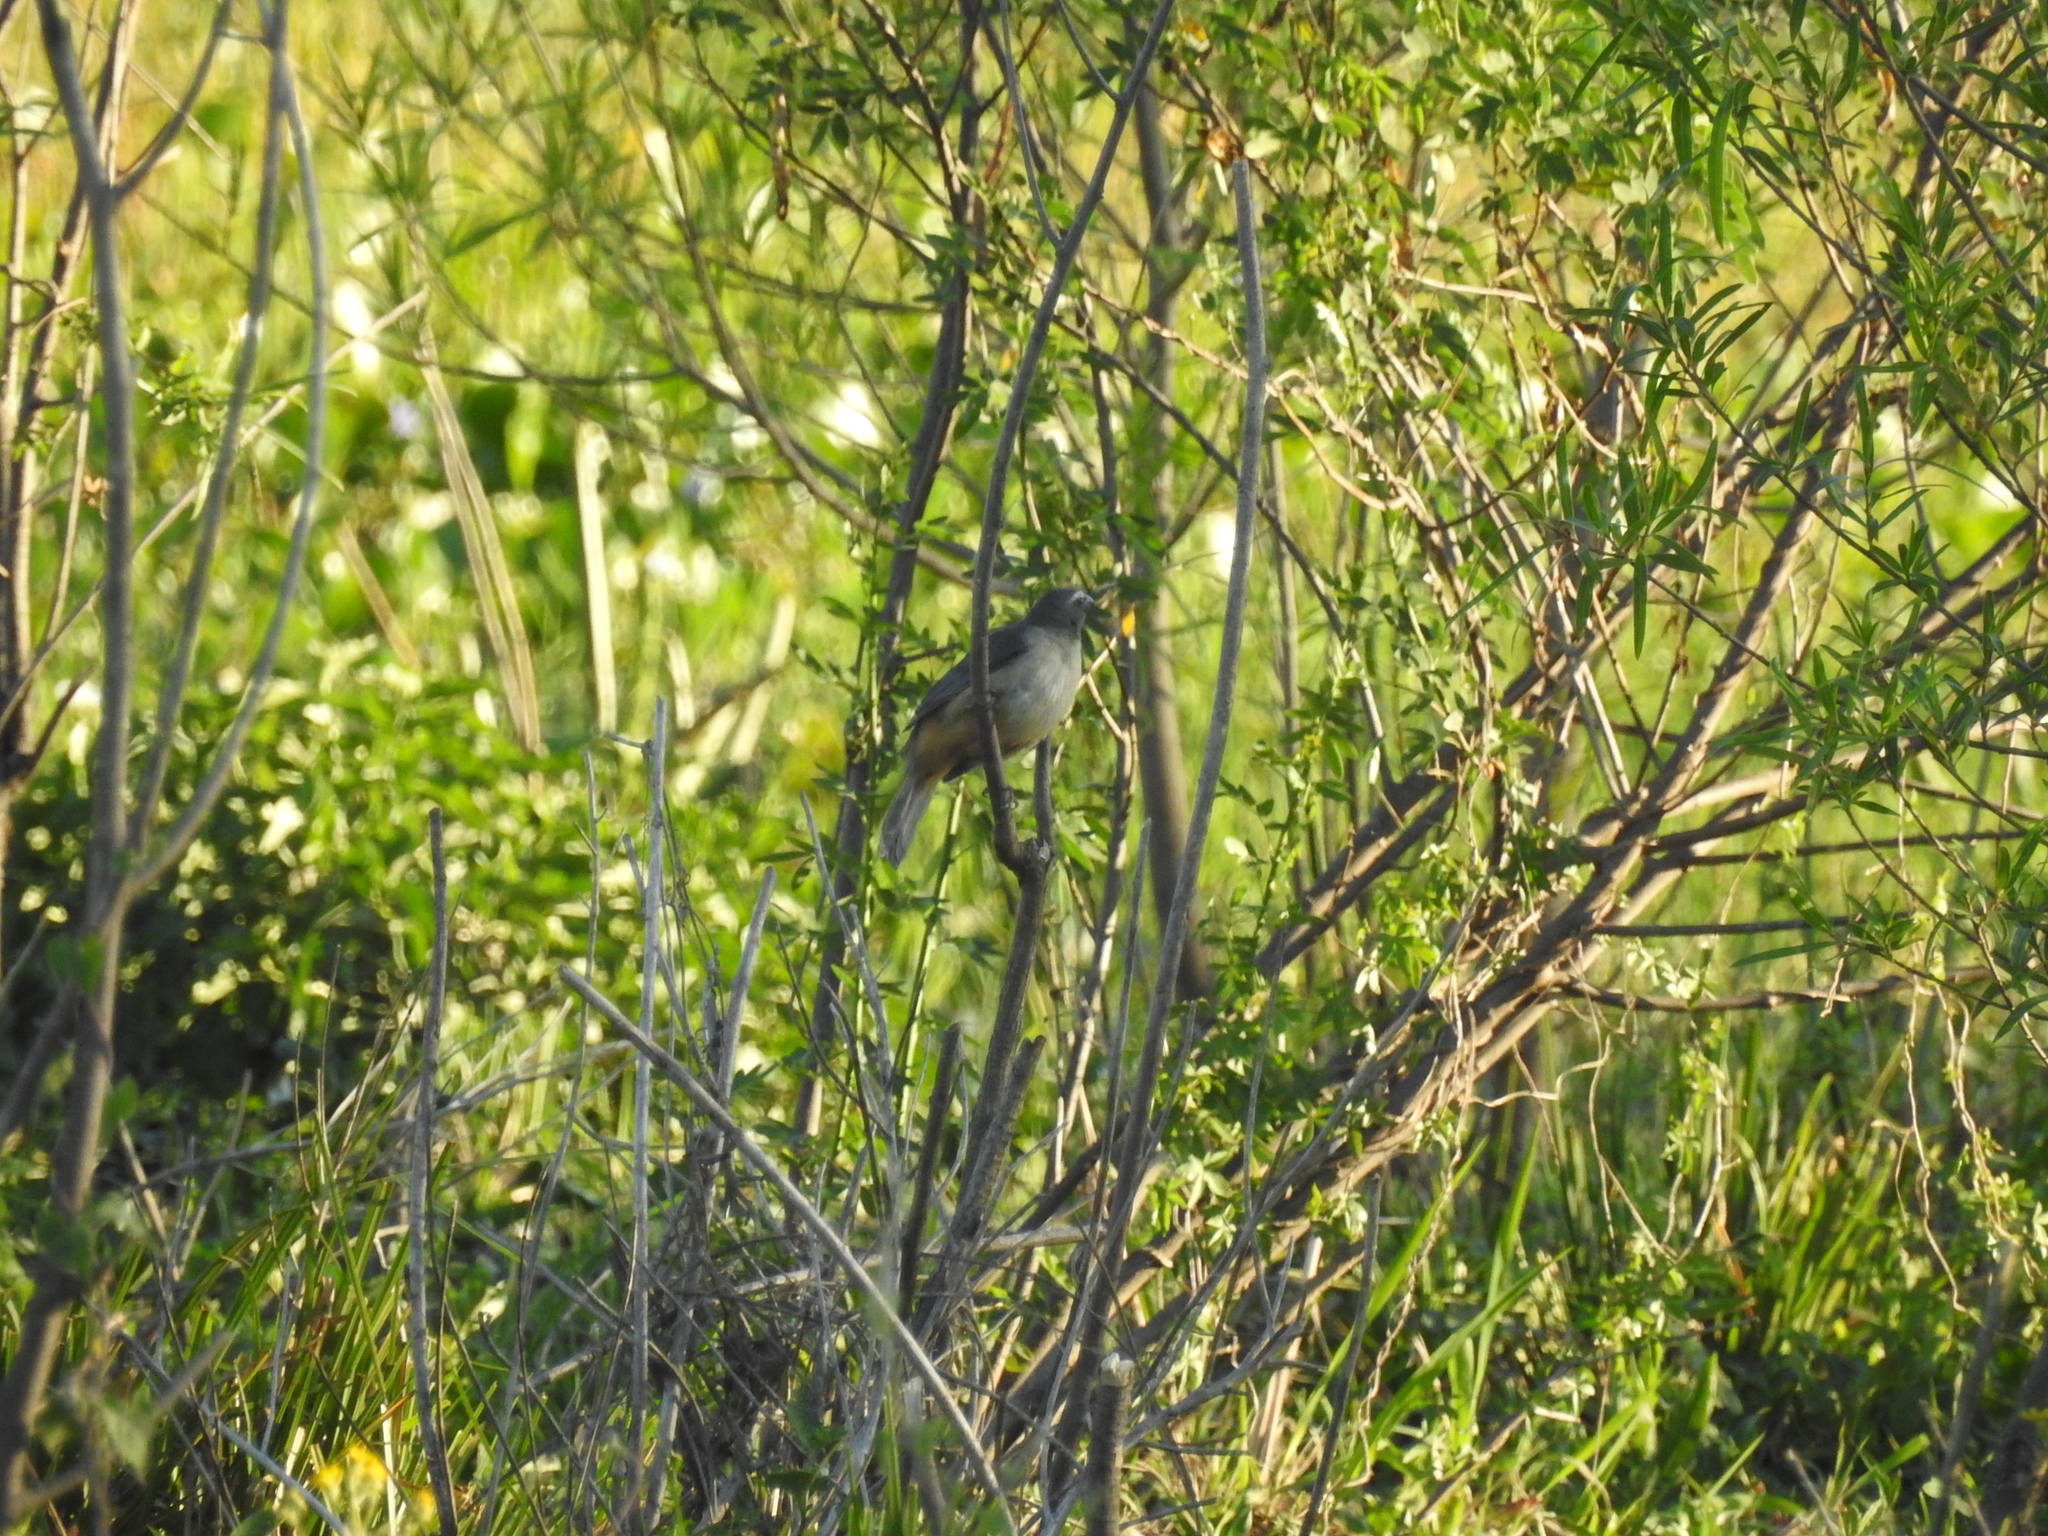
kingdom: Animalia
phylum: Chordata
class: Aves
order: Passeriformes
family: Thraupidae
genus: Saltator
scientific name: Saltator coerulescens
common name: Grayish saltator
